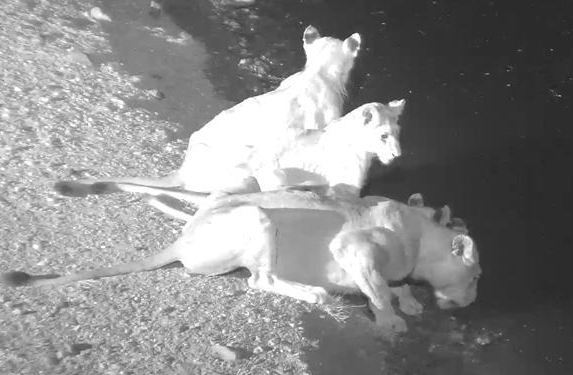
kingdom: Animalia
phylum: Chordata
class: Mammalia
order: Carnivora
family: Felidae
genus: Panthera
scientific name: Panthera leo
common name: Lion
